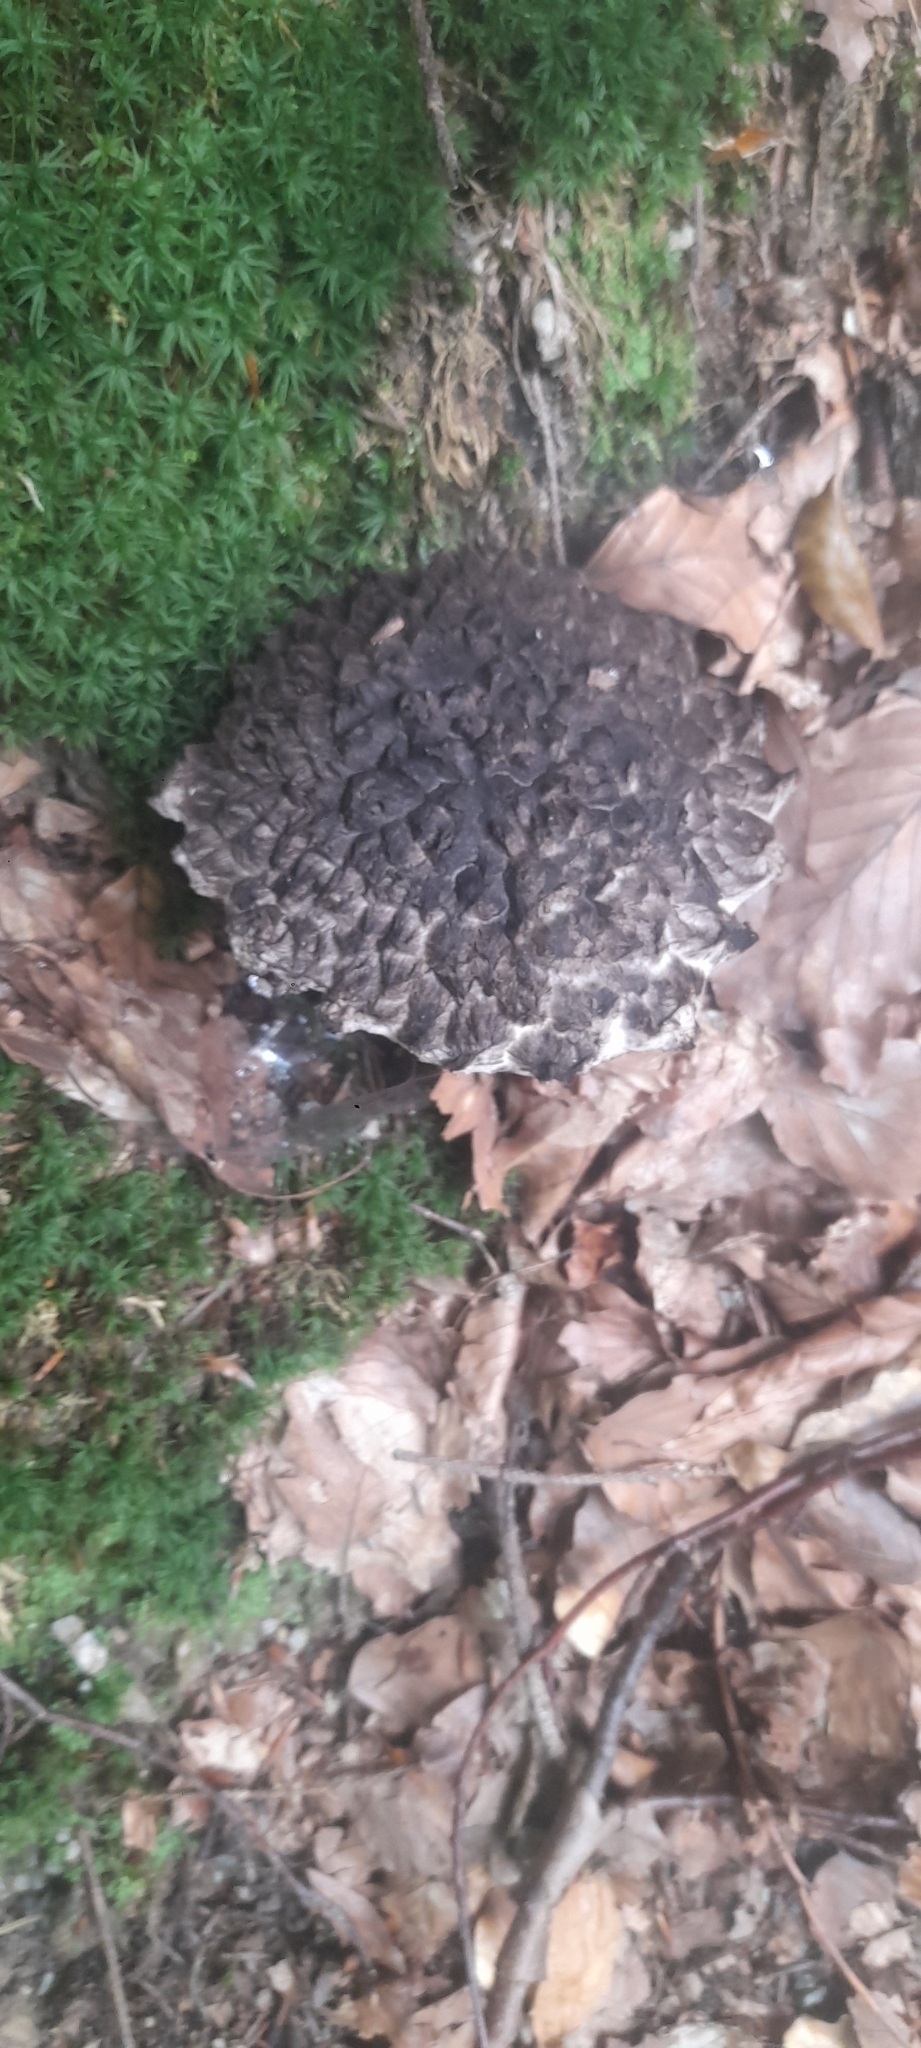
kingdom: Fungi
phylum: Basidiomycota
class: Agaricomycetes
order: Boletales
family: Boletaceae
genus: Strobilomyces
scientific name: Strobilomyces strobilaceus
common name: Old man of the woods
